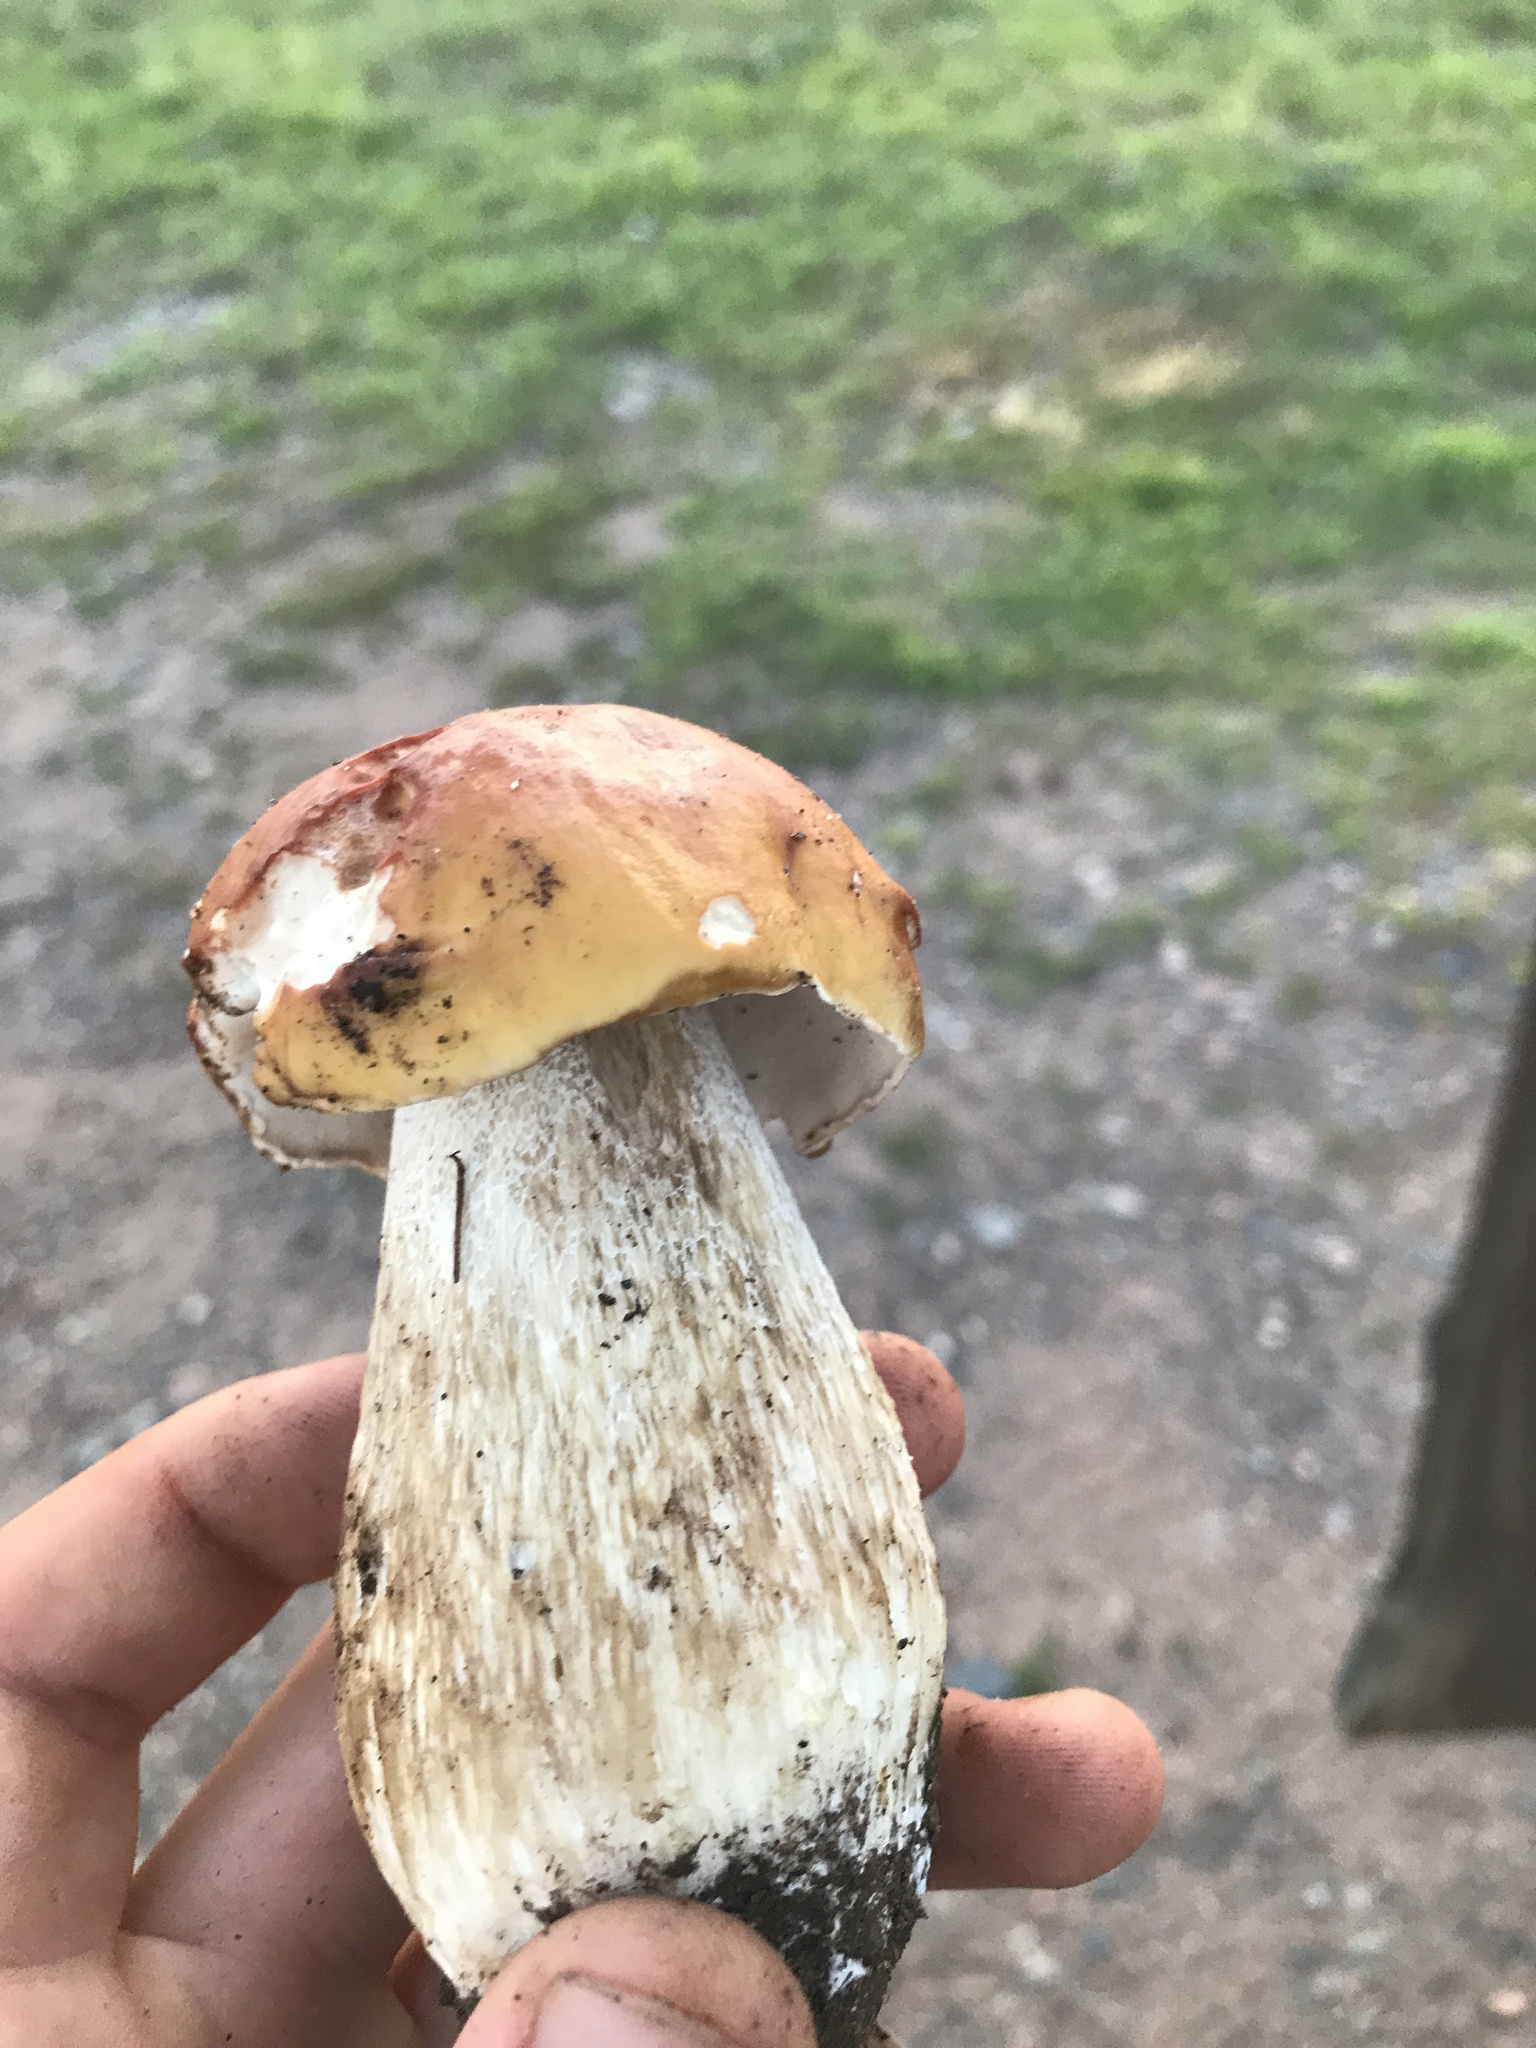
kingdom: Fungi
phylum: Basidiomycota
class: Agaricomycetes
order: Boletales
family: Boletaceae
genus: Boletus
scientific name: Boletus chippewaensis
